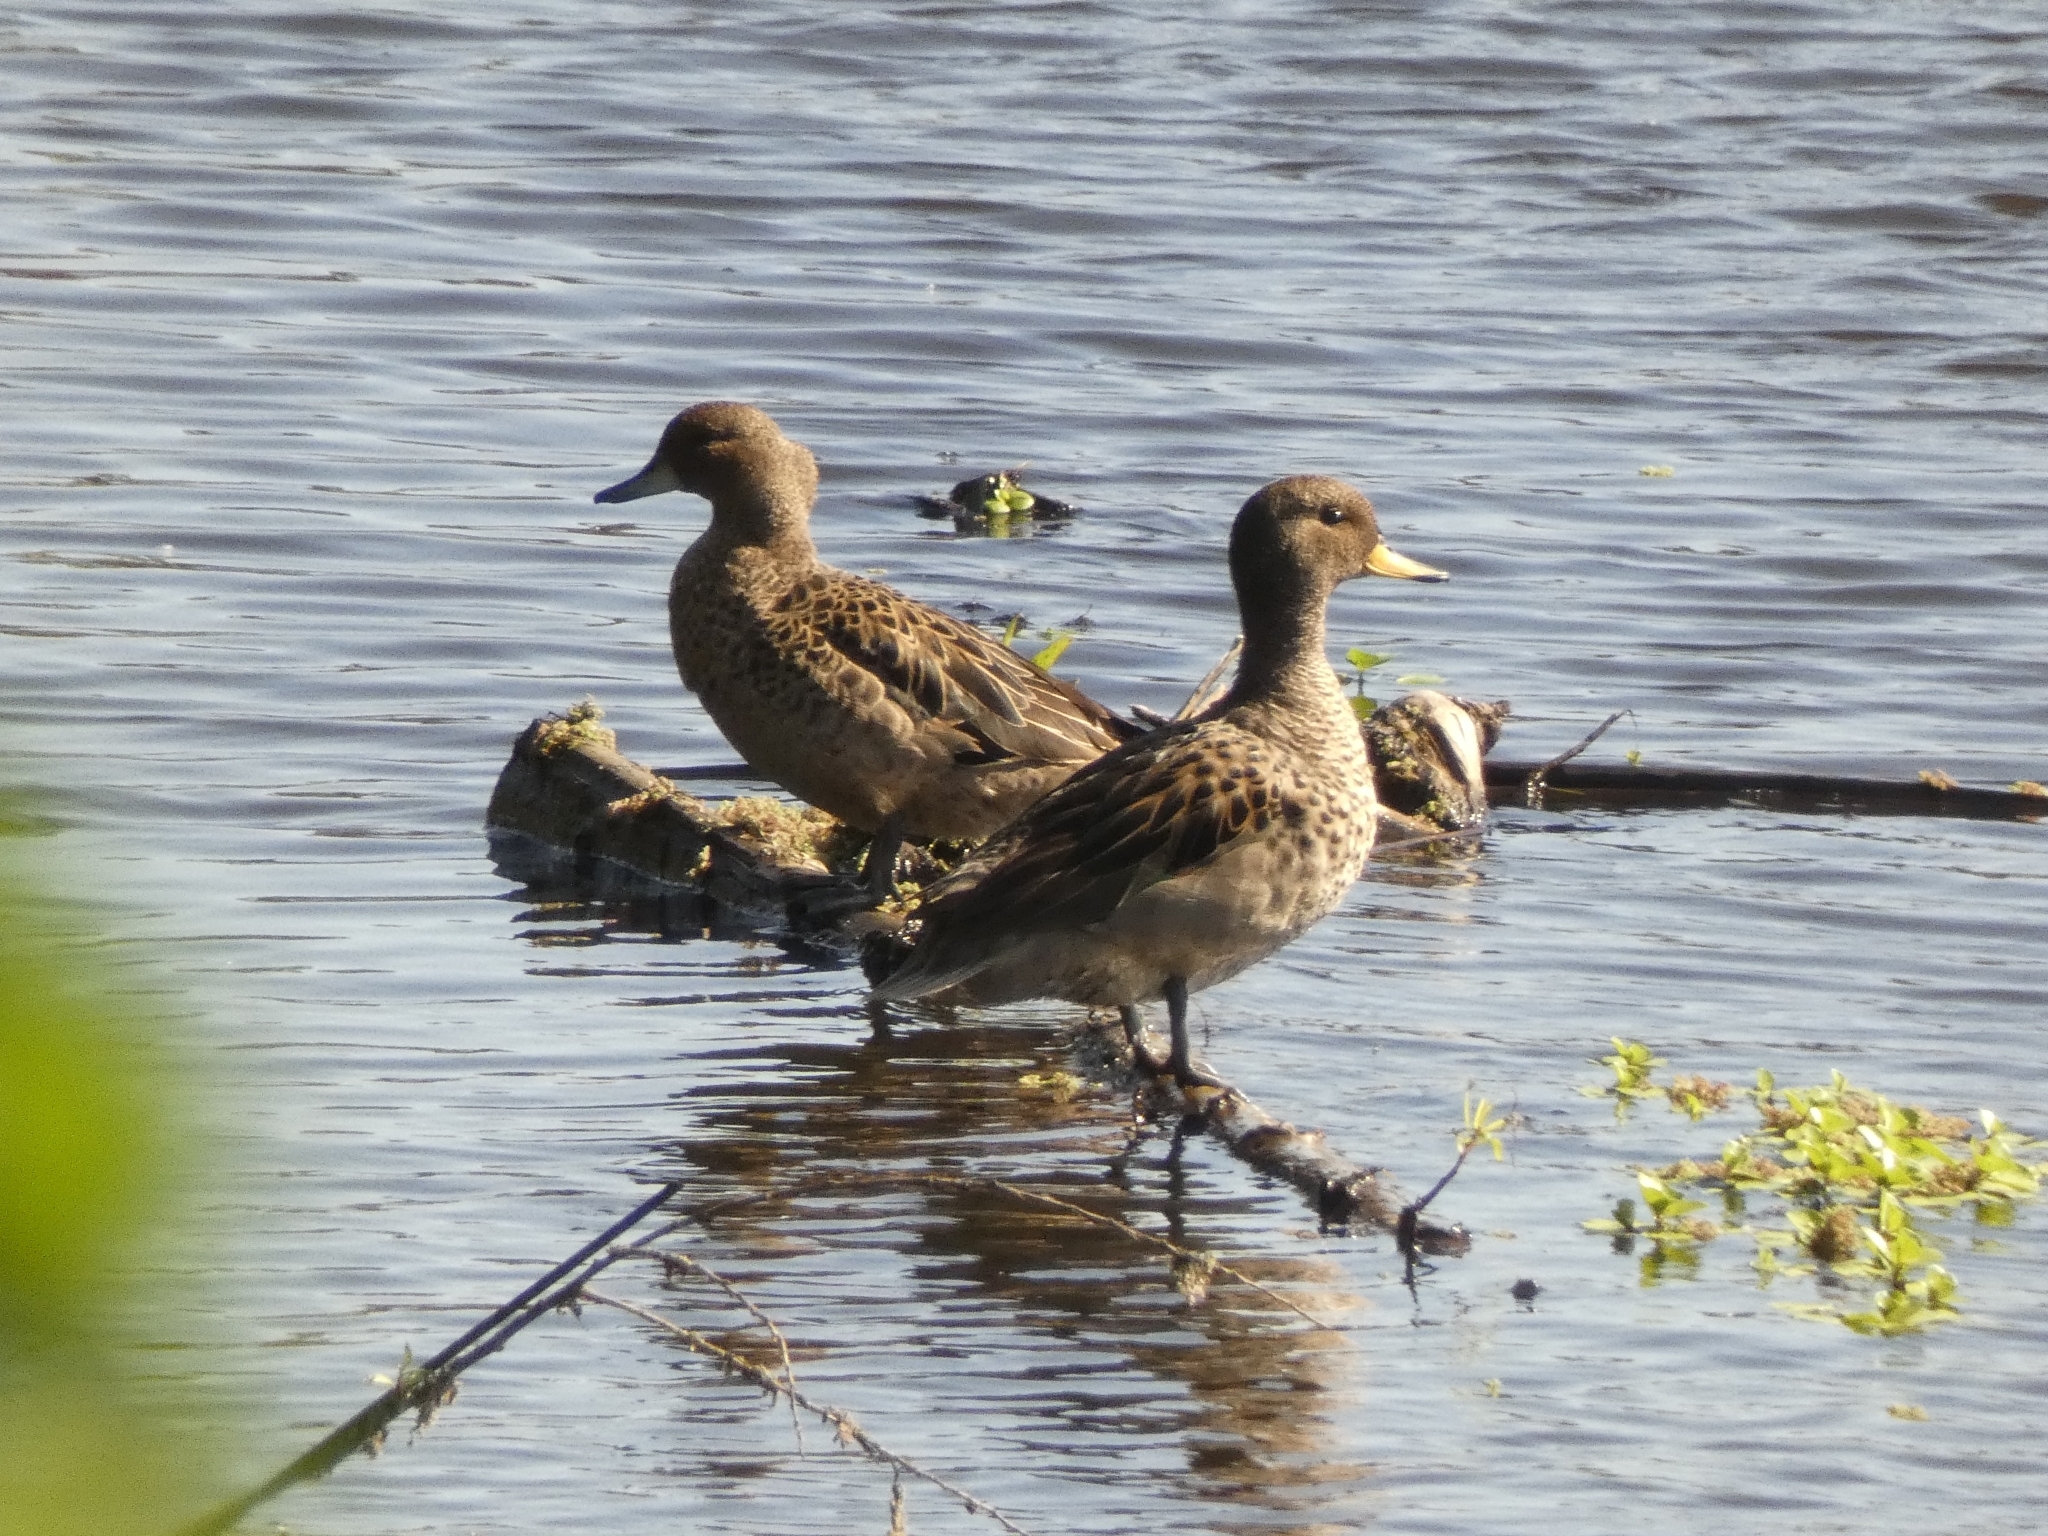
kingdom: Animalia
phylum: Chordata
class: Aves
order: Anseriformes
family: Anatidae
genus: Anas
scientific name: Anas flavirostris
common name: Yellow-billed teal
